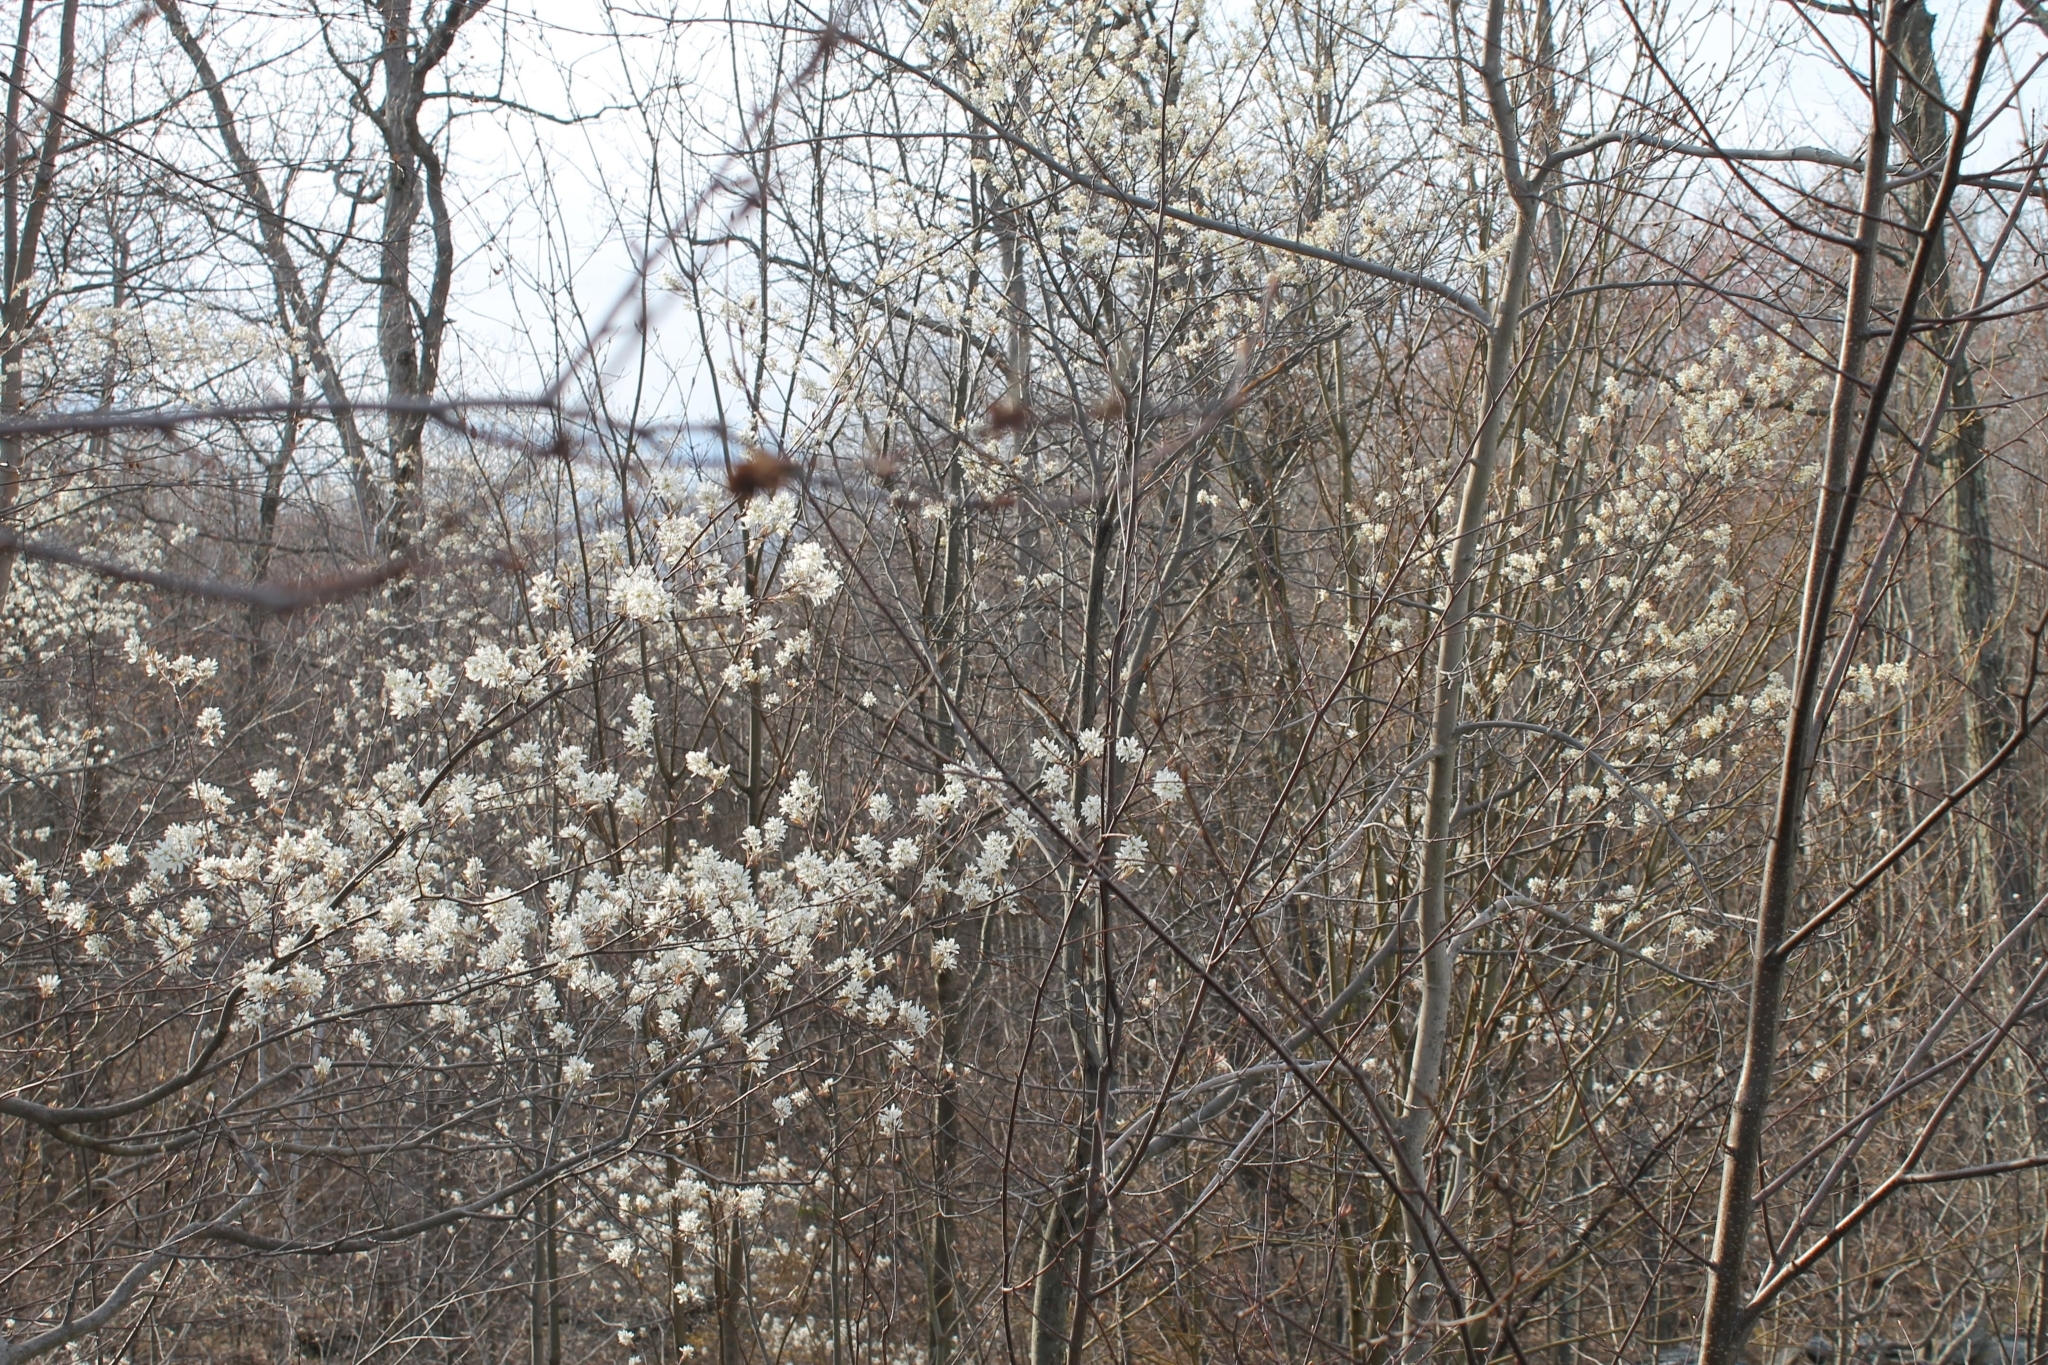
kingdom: Plantae
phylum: Tracheophyta
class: Magnoliopsida
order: Rosales
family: Rosaceae
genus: Amelanchier
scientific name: Amelanchier
